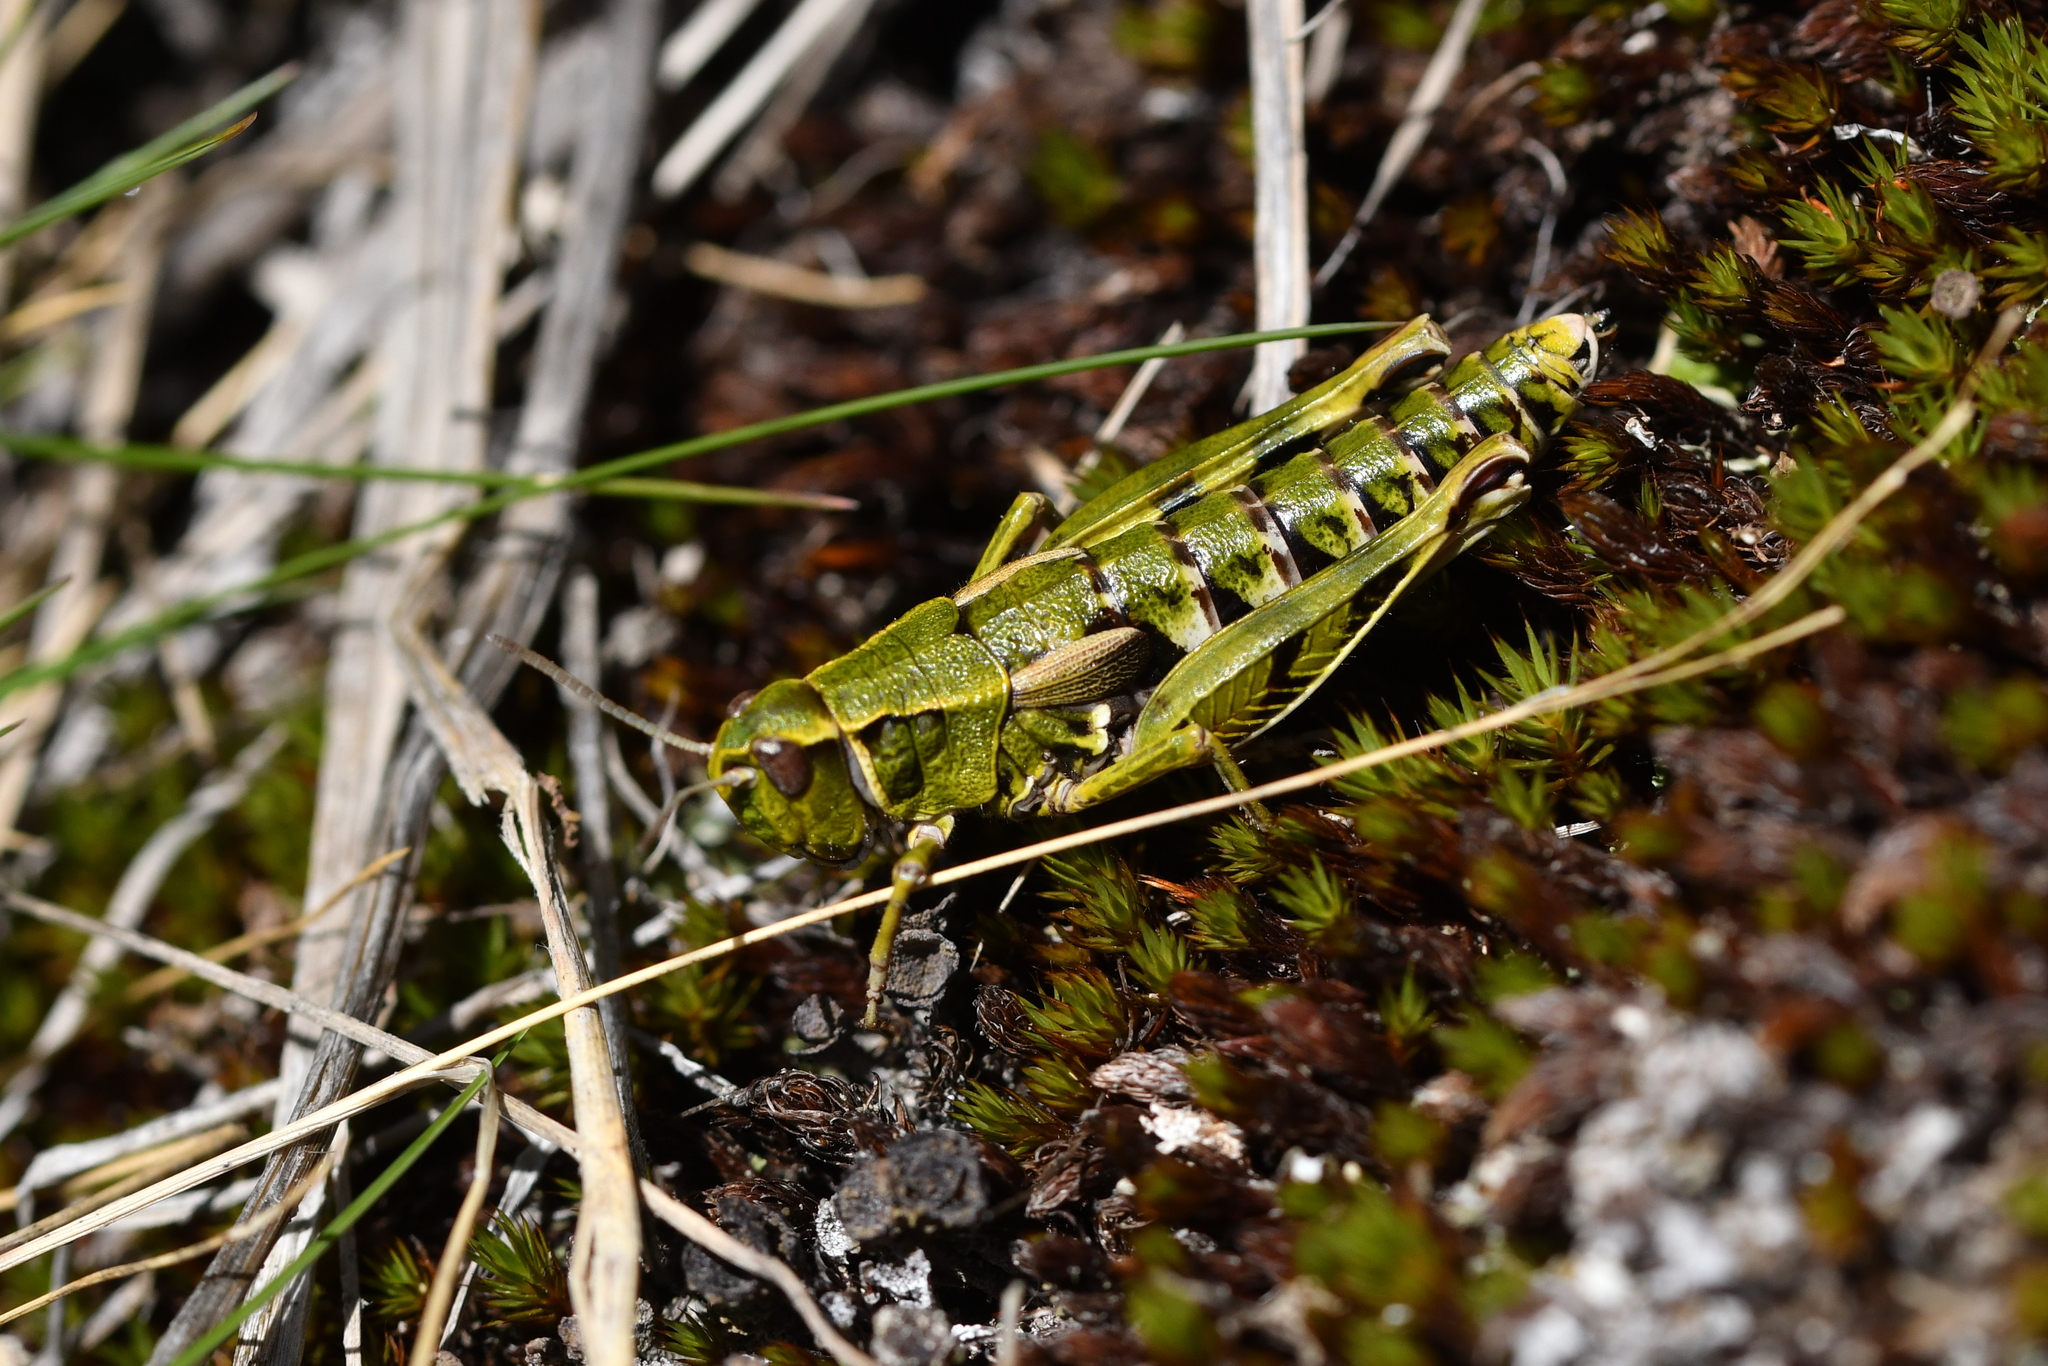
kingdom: Animalia
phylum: Arthropoda
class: Insecta
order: Orthoptera
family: Acrididae
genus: Sigaus
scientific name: Sigaus australis
